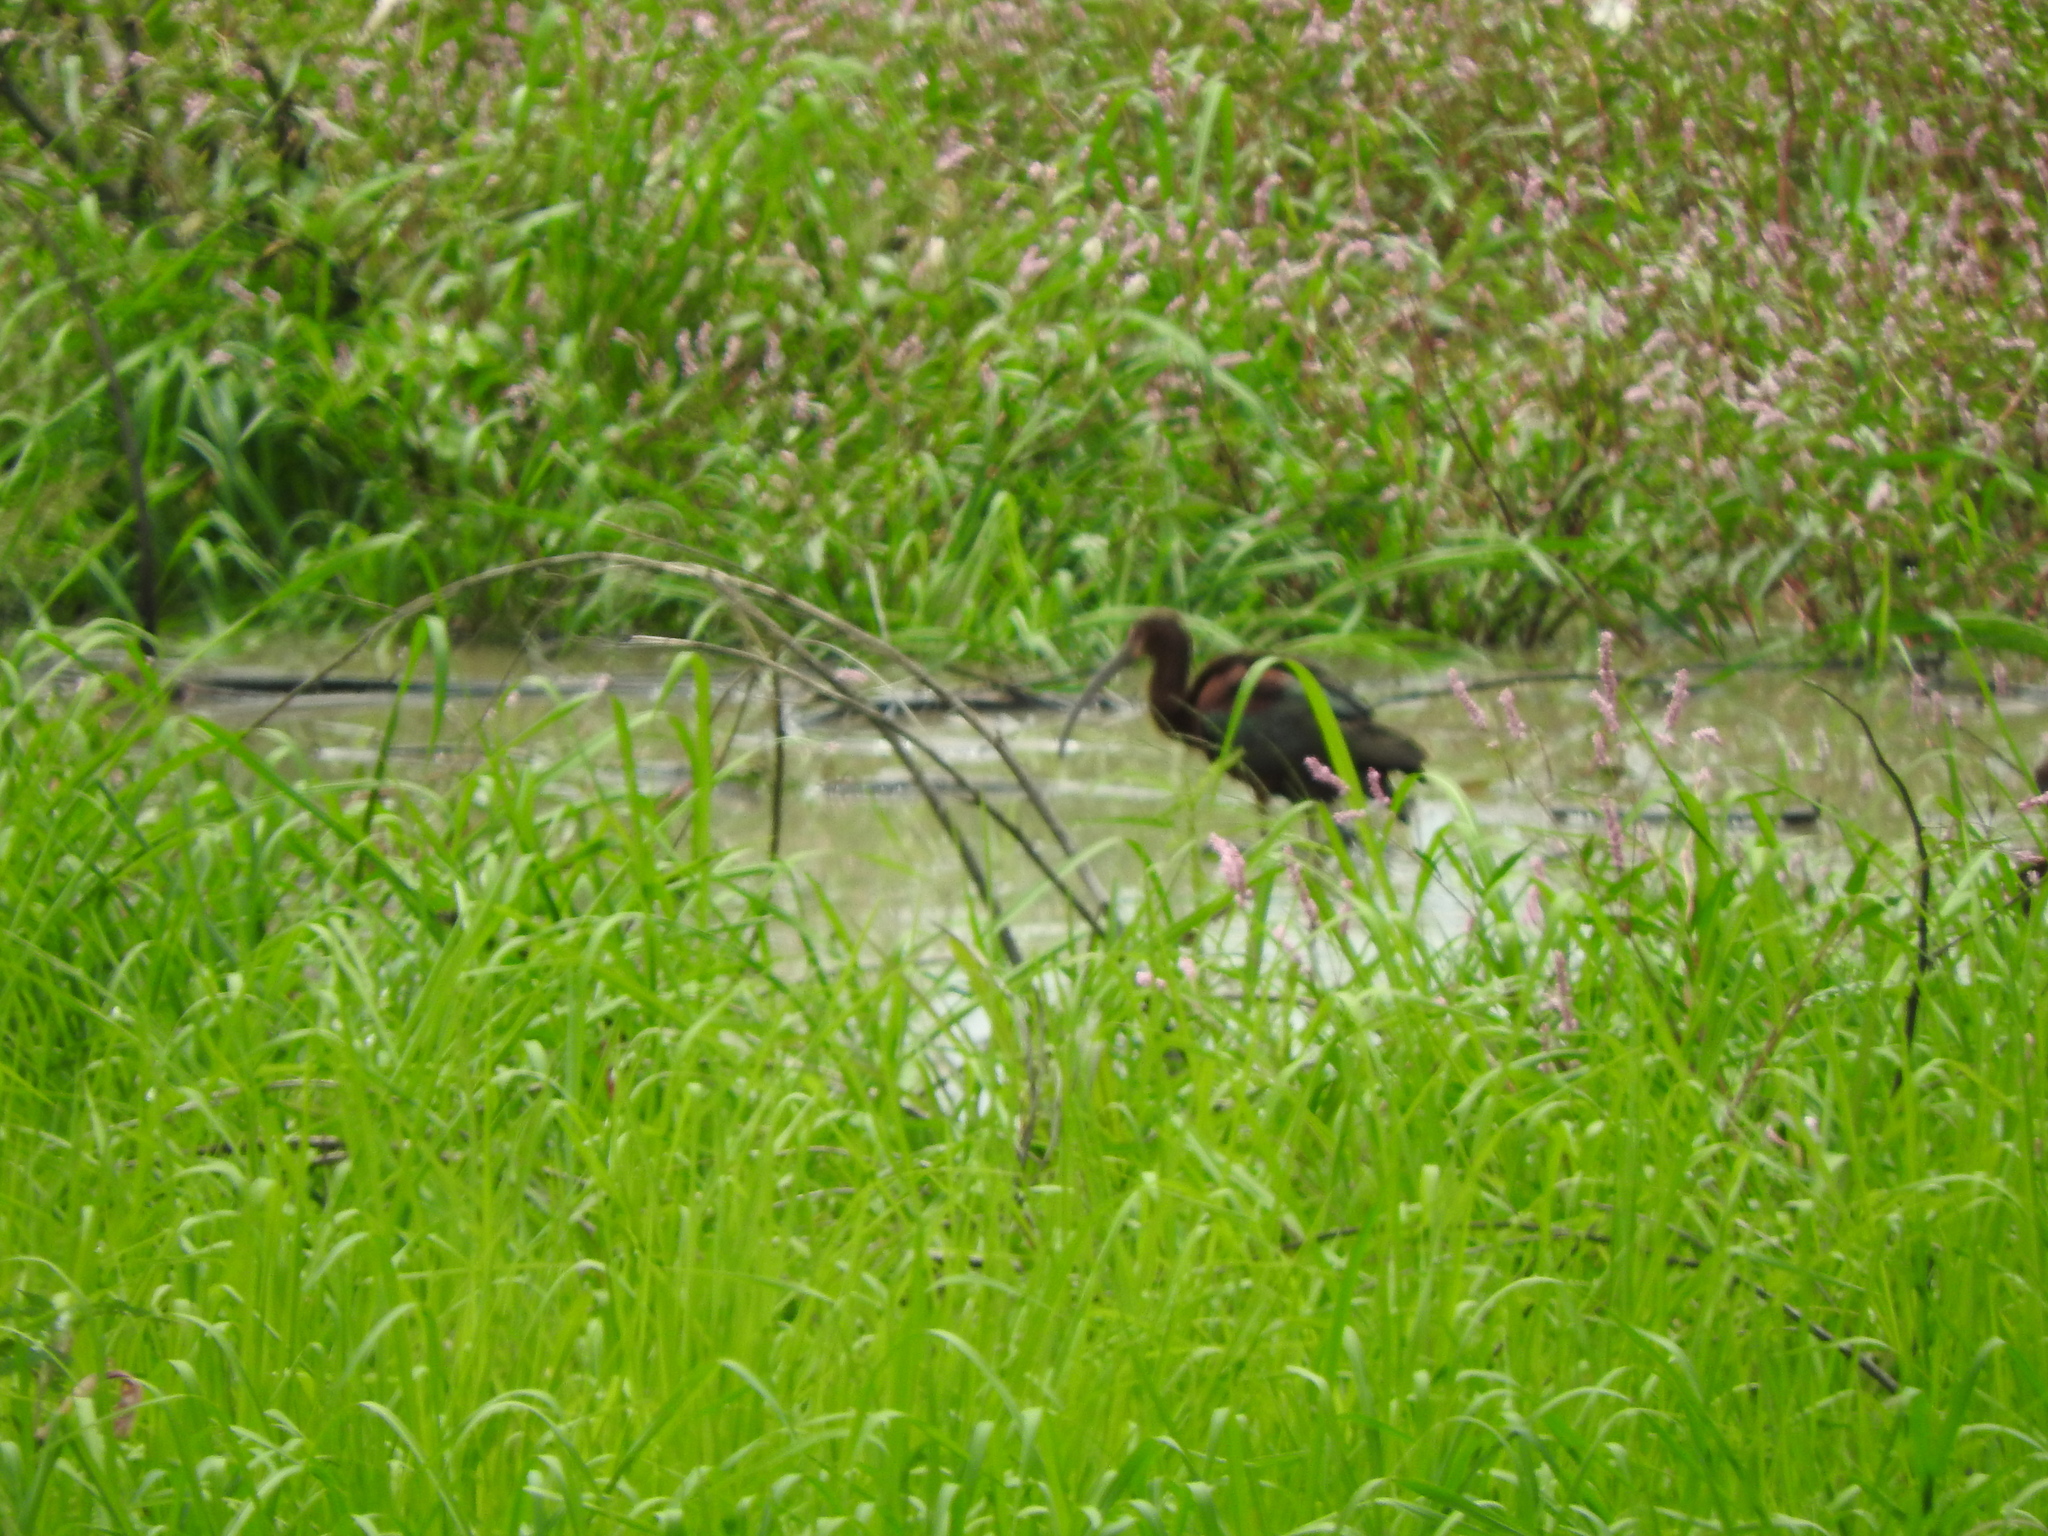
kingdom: Animalia
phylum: Chordata
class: Aves
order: Pelecaniformes
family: Threskiornithidae
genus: Plegadis
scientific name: Plegadis chihi
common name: White-faced ibis
